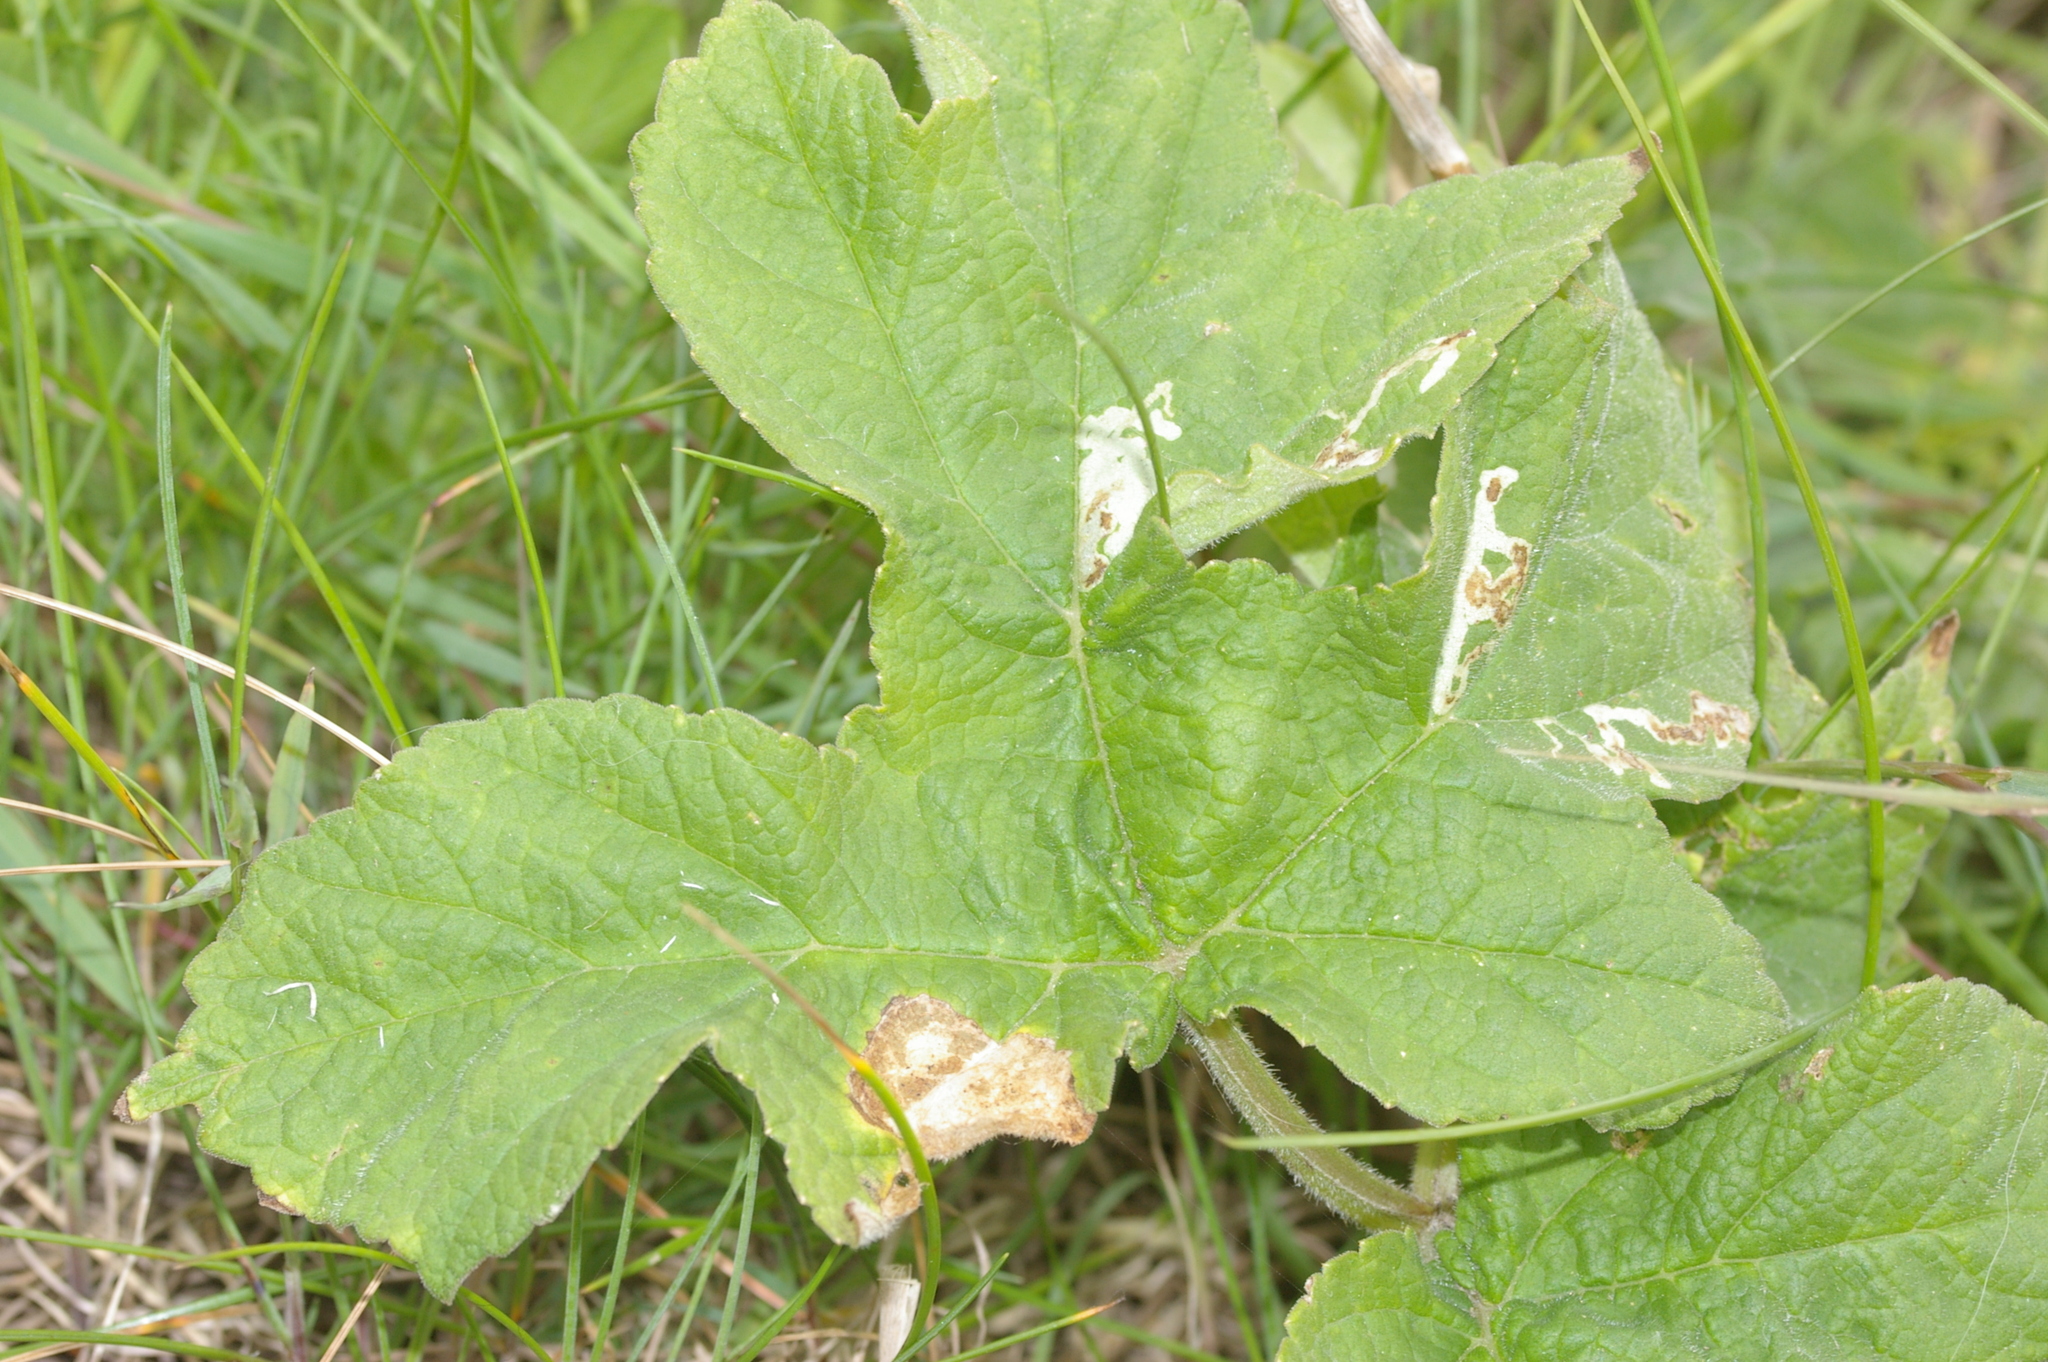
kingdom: Plantae
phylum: Tracheophyta
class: Magnoliopsida
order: Apiales
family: Apiaceae
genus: Heracleum
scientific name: Heracleum sphondylium
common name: Hogweed
